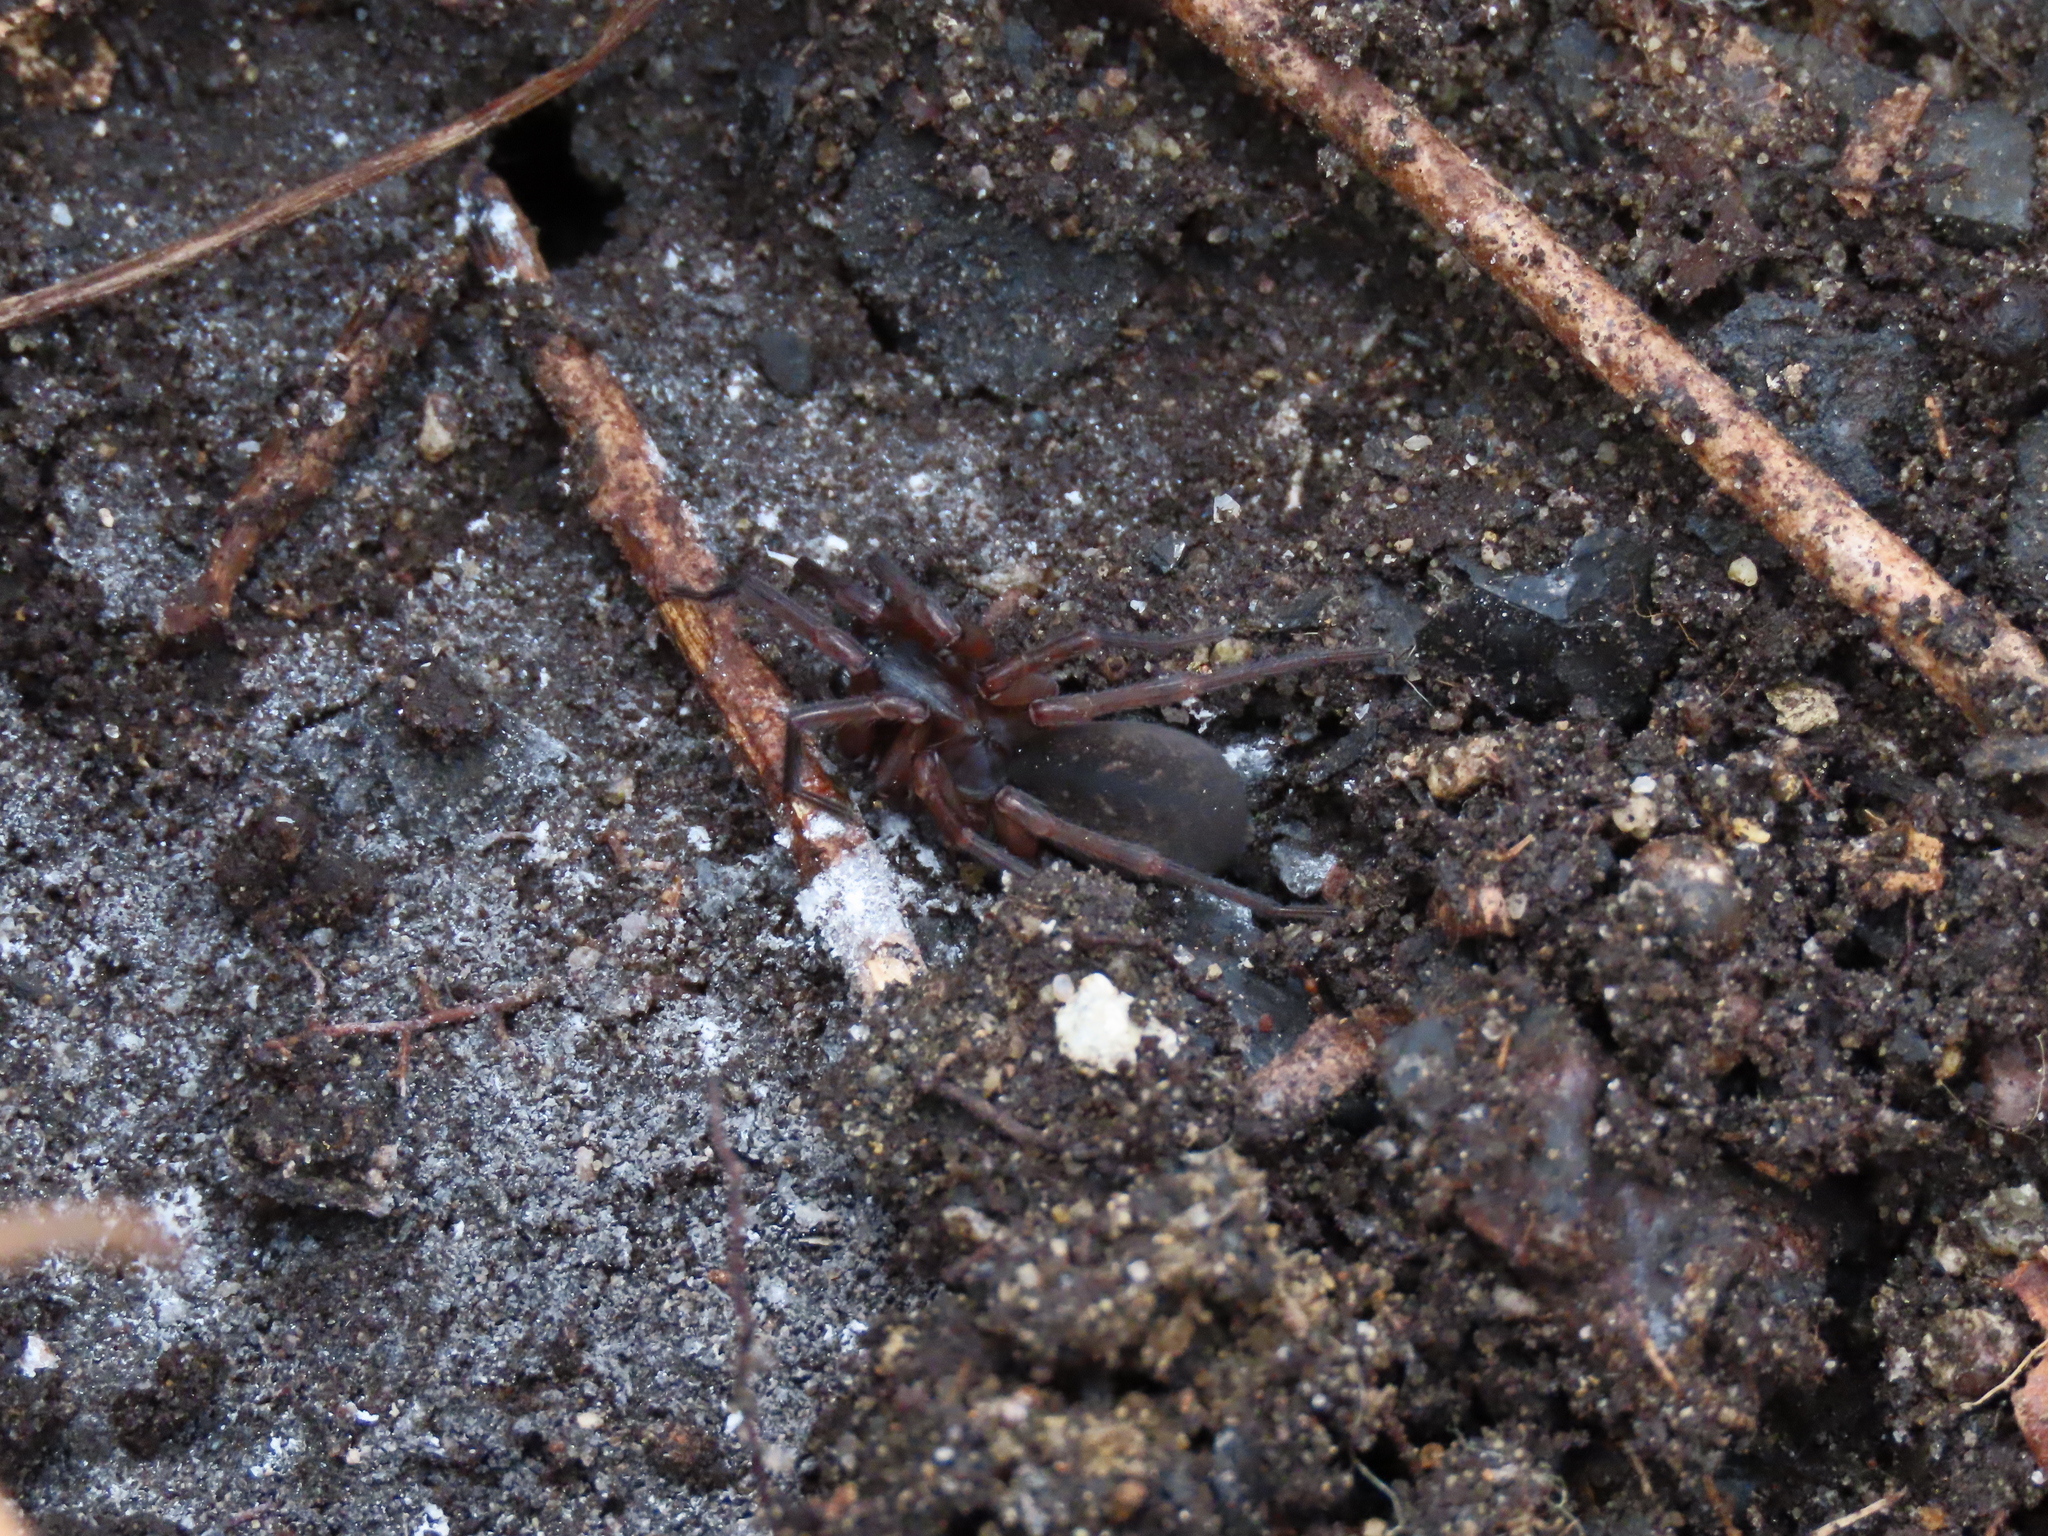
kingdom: Animalia
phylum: Arthropoda
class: Arachnida
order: Araneae
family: Agelenidae
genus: Wadotes
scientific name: Wadotes
